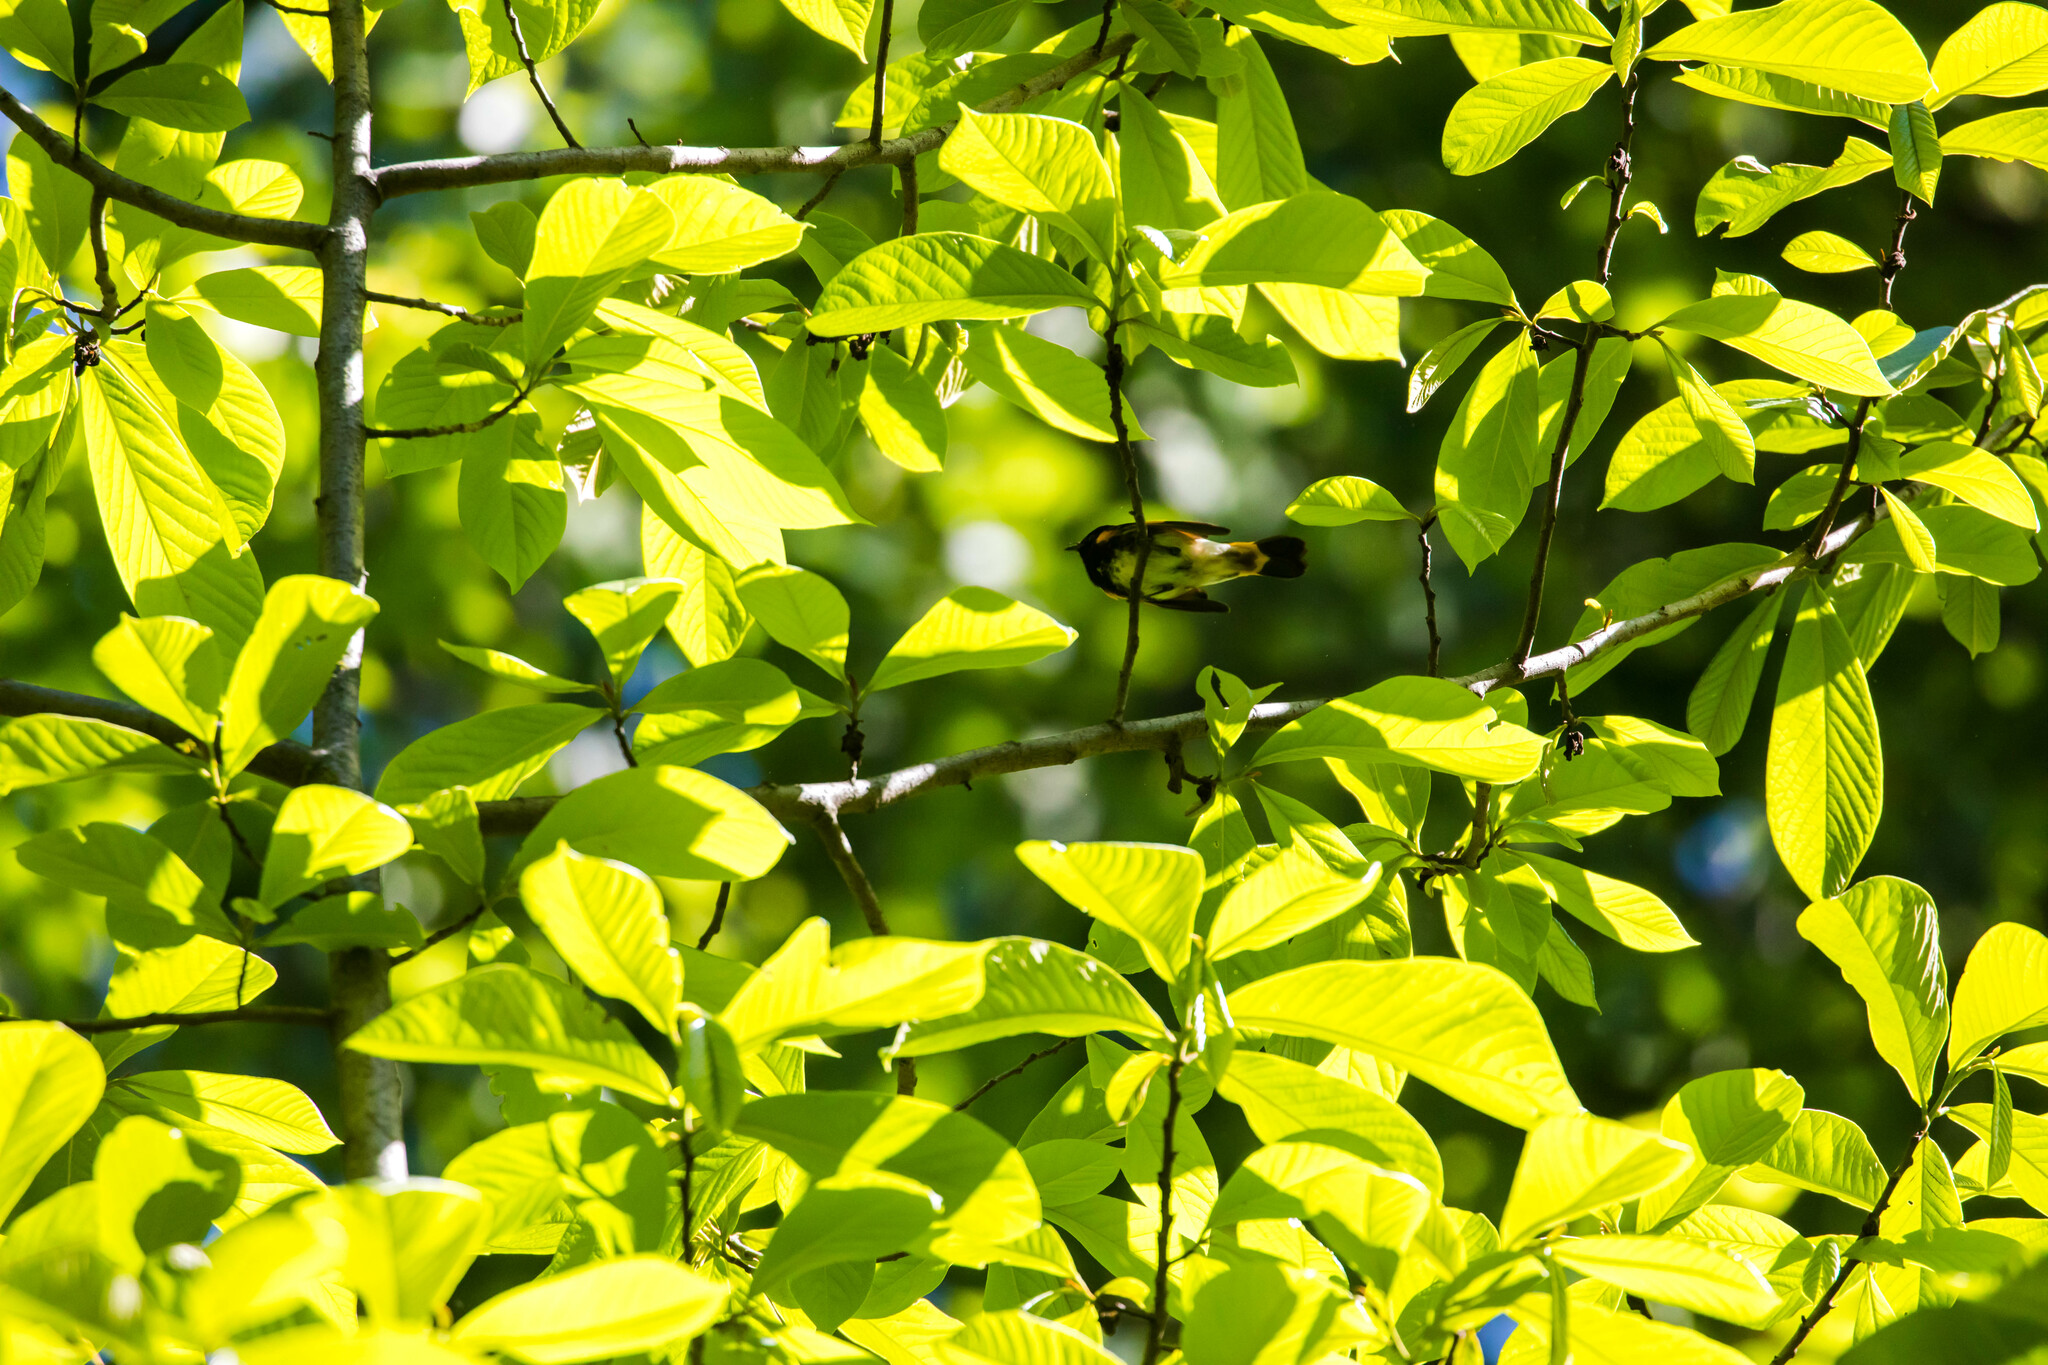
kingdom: Animalia
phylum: Chordata
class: Aves
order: Passeriformes
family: Parulidae
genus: Setophaga
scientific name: Setophaga ruticilla
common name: American redstart
